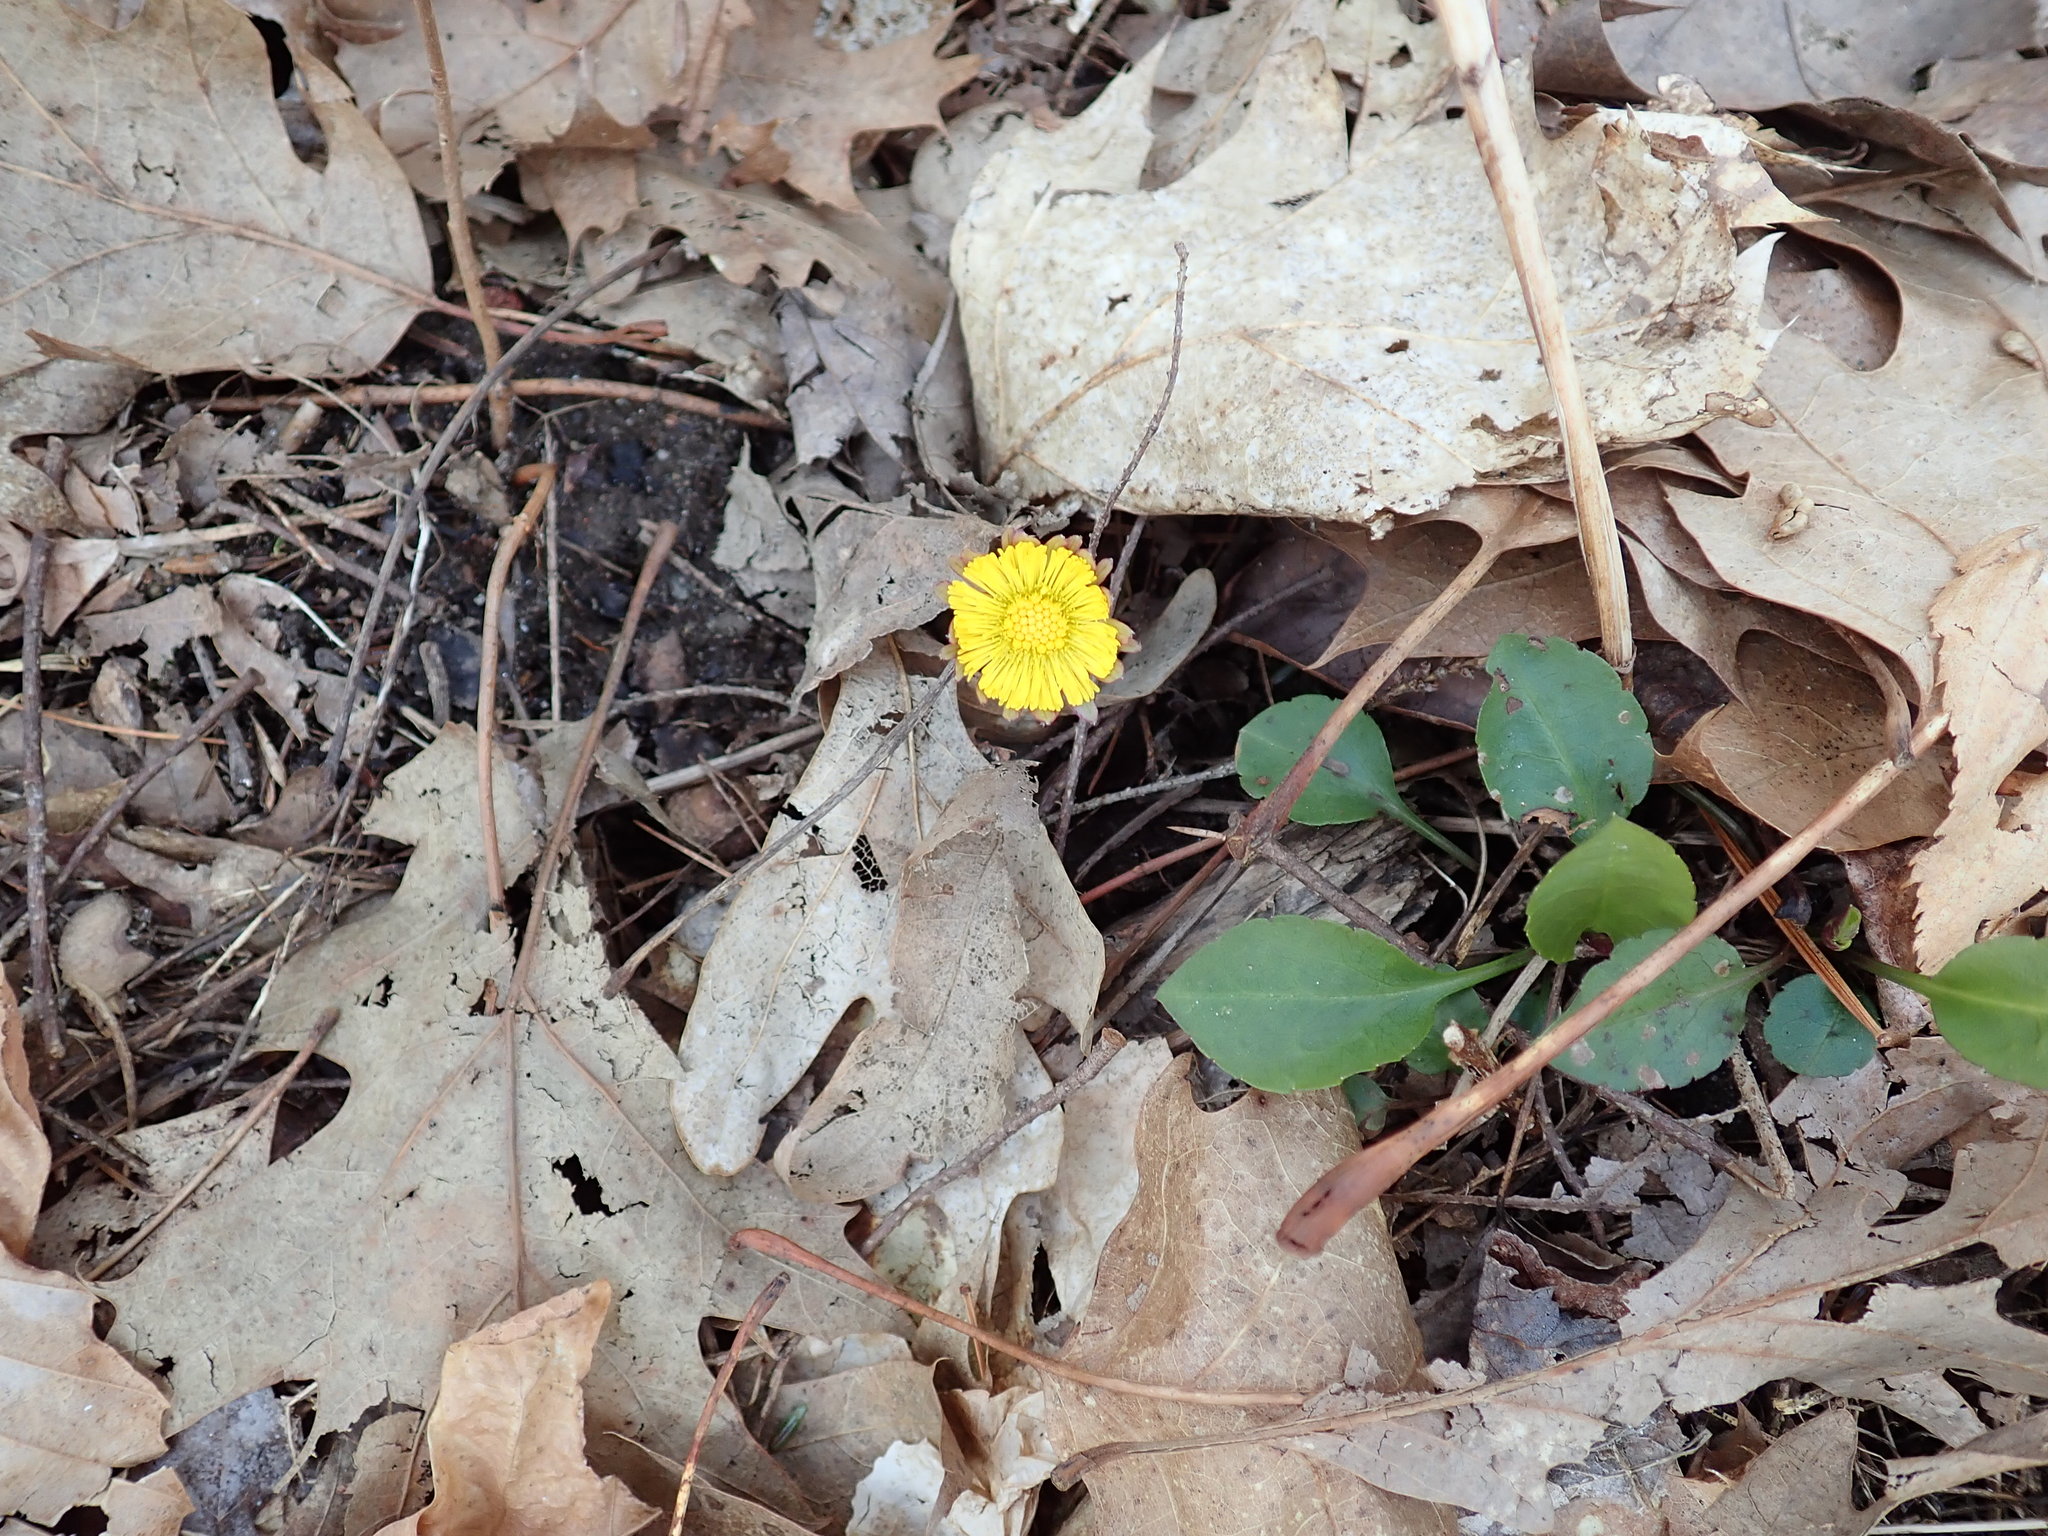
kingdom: Plantae
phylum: Tracheophyta
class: Magnoliopsida
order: Asterales
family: Asteraceae
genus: Tussilago
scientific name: Tussilago farfara
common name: Coltsfoot
